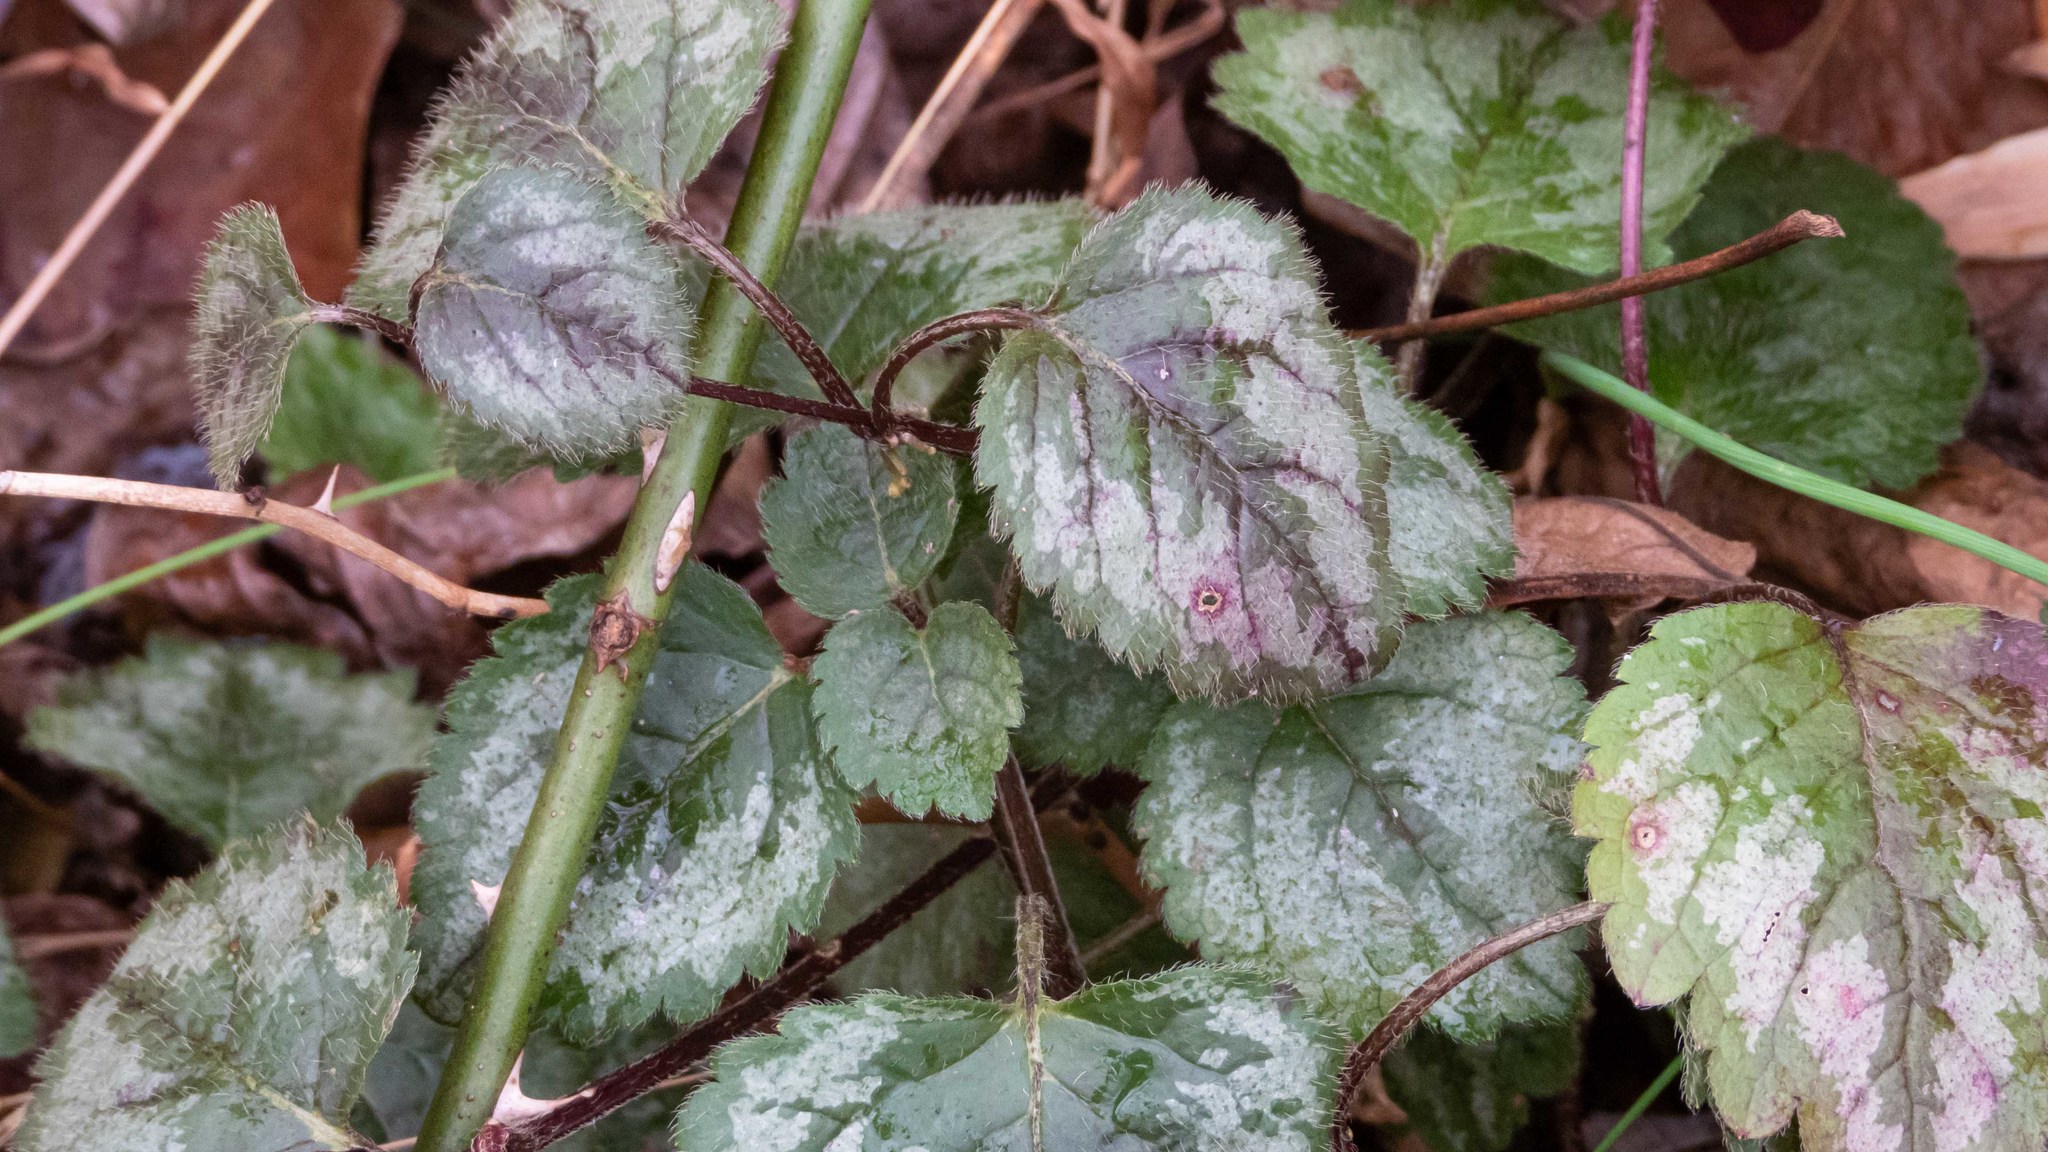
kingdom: Plantae
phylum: Tracheophyta
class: Magnoliopsida
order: Lamiales
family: Lamiaceae
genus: Lamium
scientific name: Lamium galeobdolon
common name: Yellow archangel
